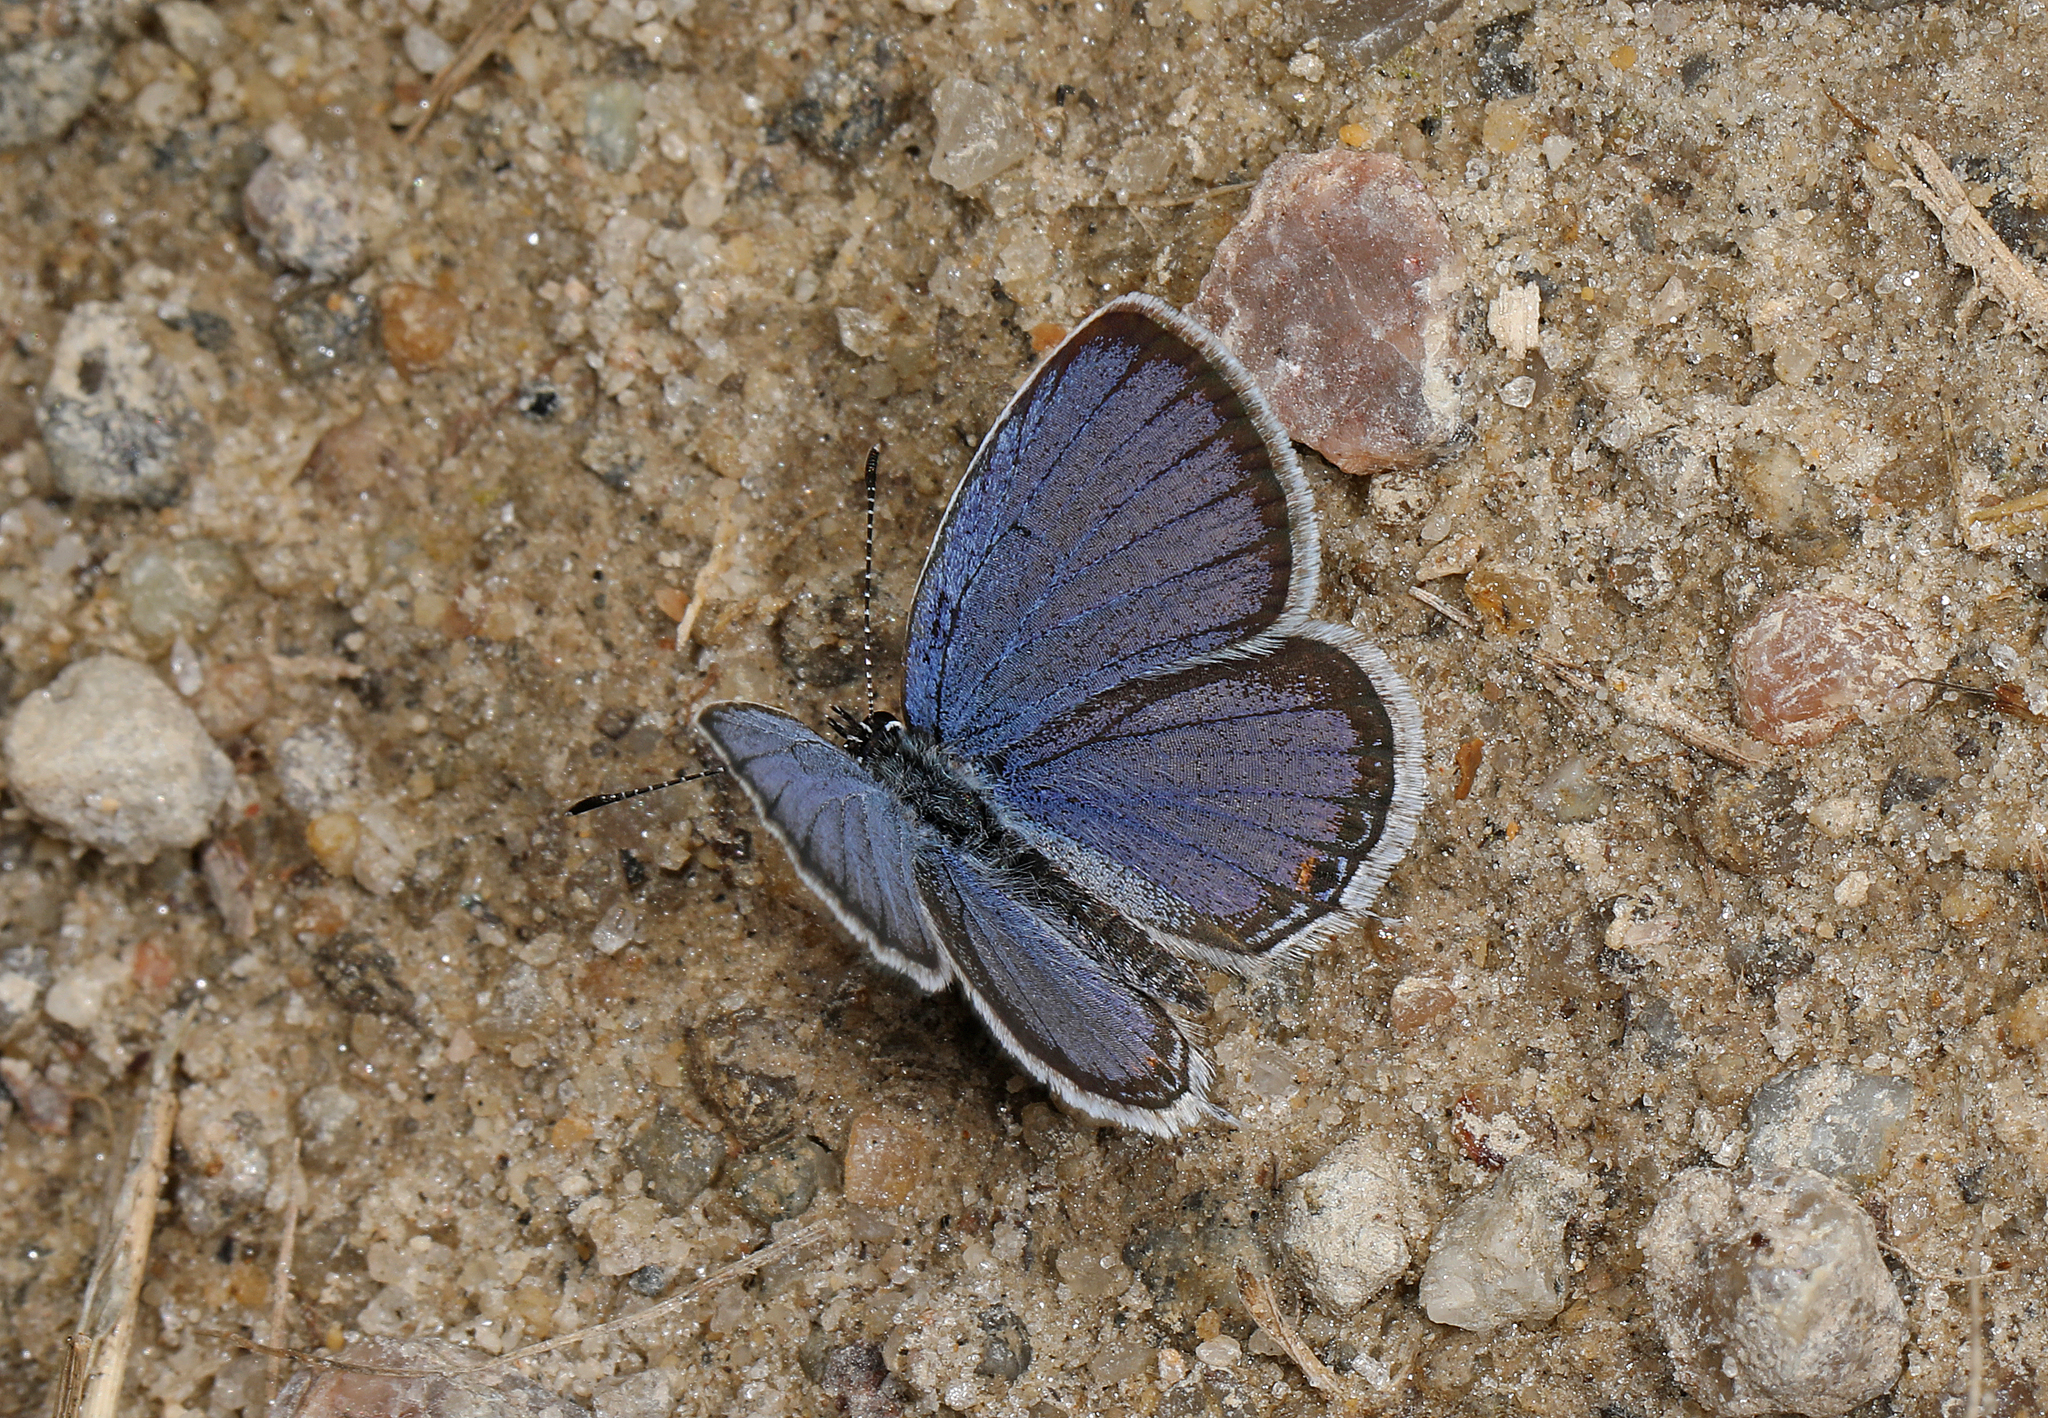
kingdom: Animalia
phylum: Arthropoda
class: Insecta
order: Lepidoptera
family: Lycaenidae
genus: Elkalyce
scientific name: Elkalyce comyntas
